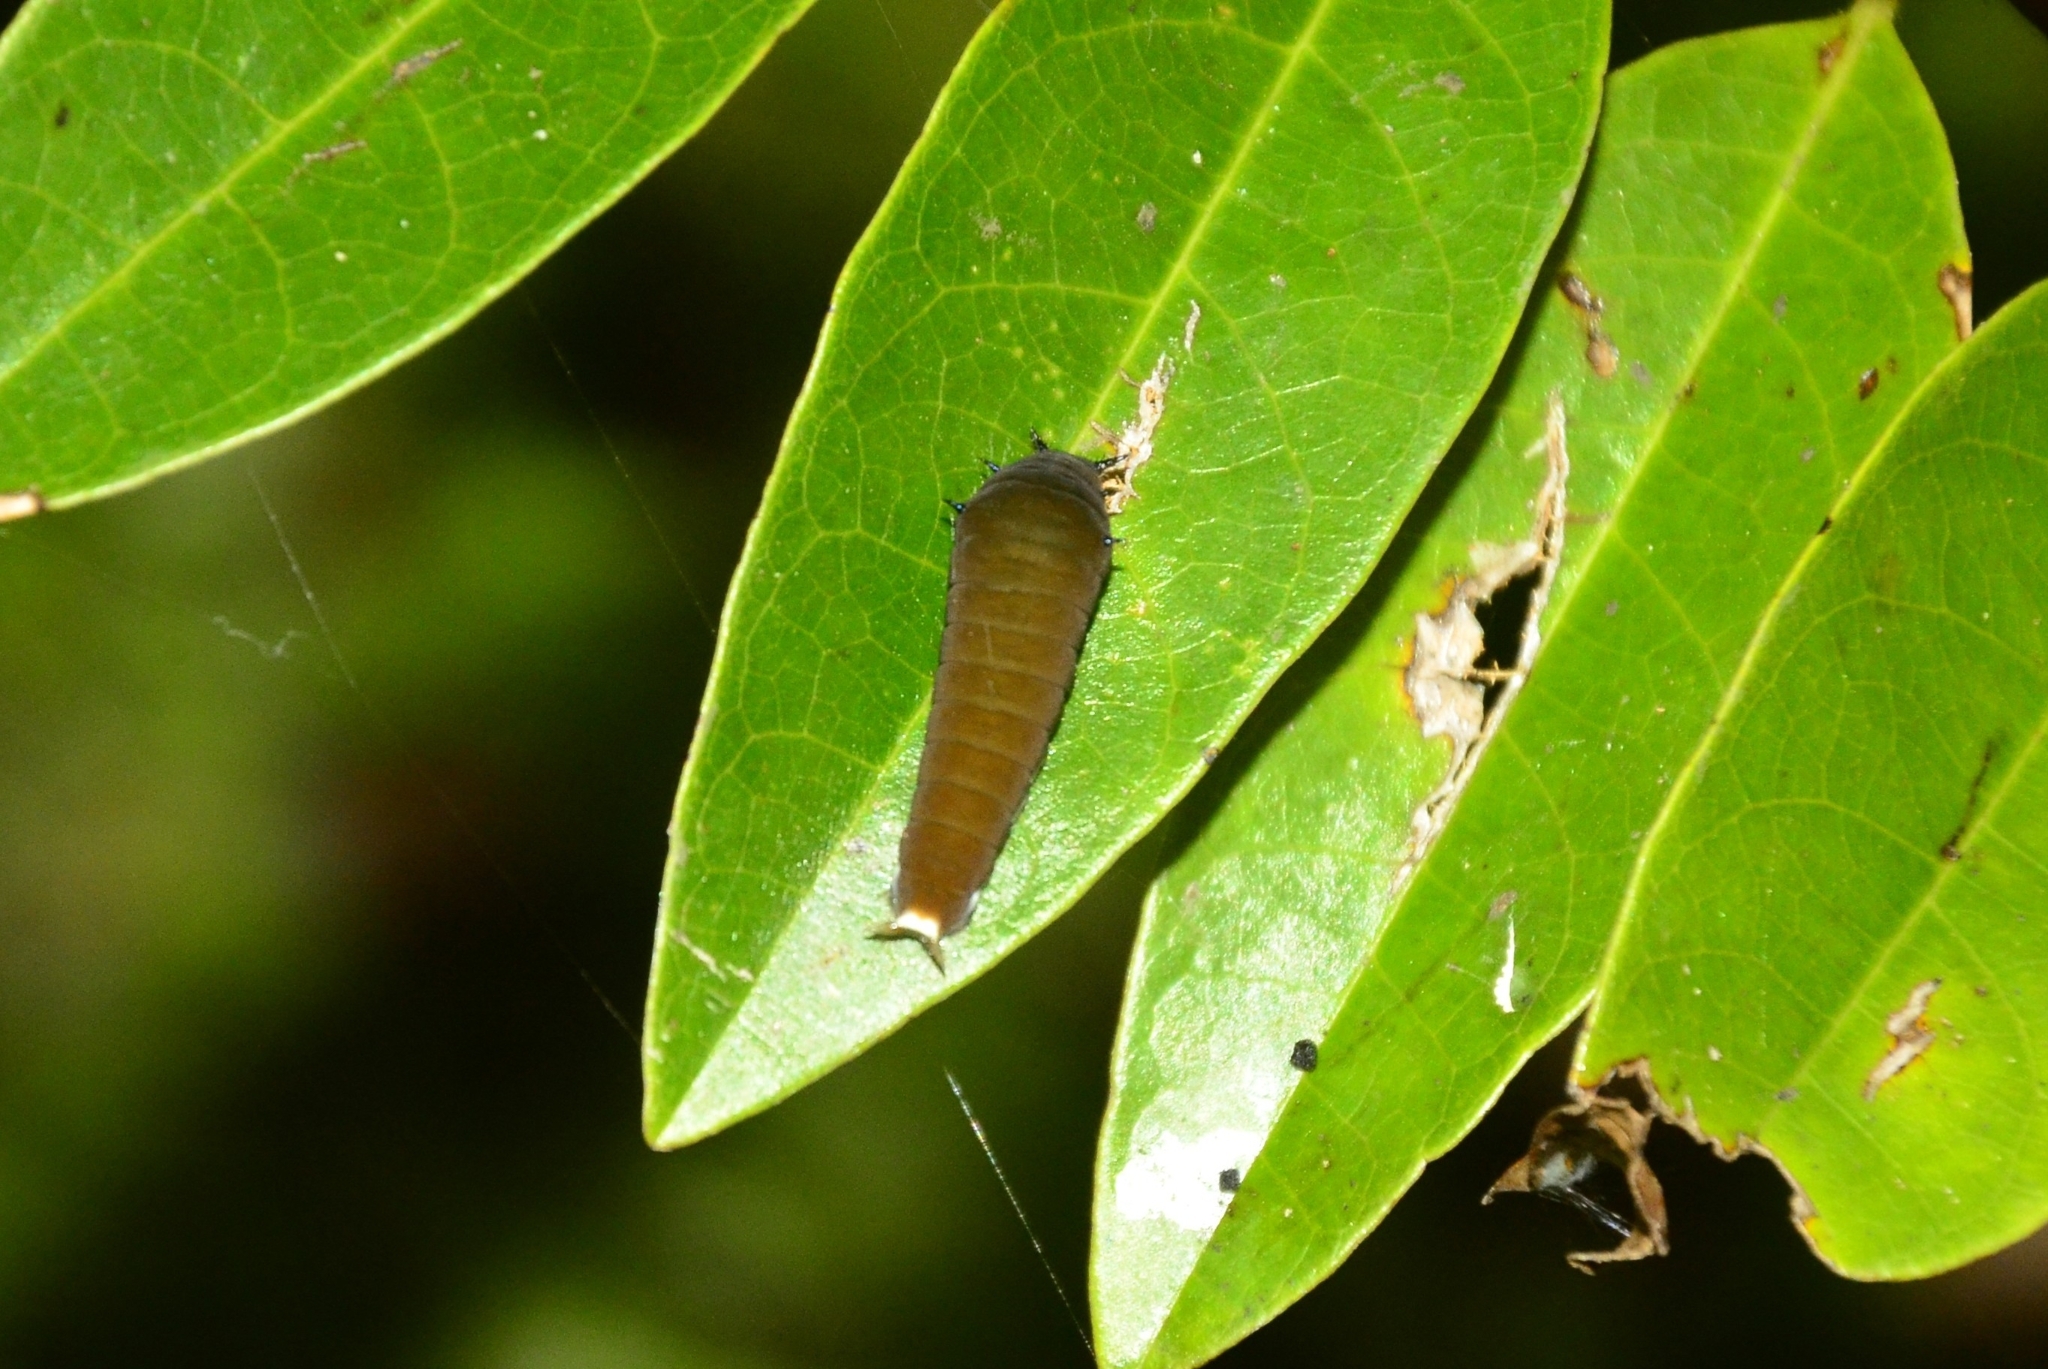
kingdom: Animalia
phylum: Arthropoda
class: Insecta
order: Lepidoptera
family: Papilionidae
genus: Graphium
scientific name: Graphium doson
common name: Common jay
